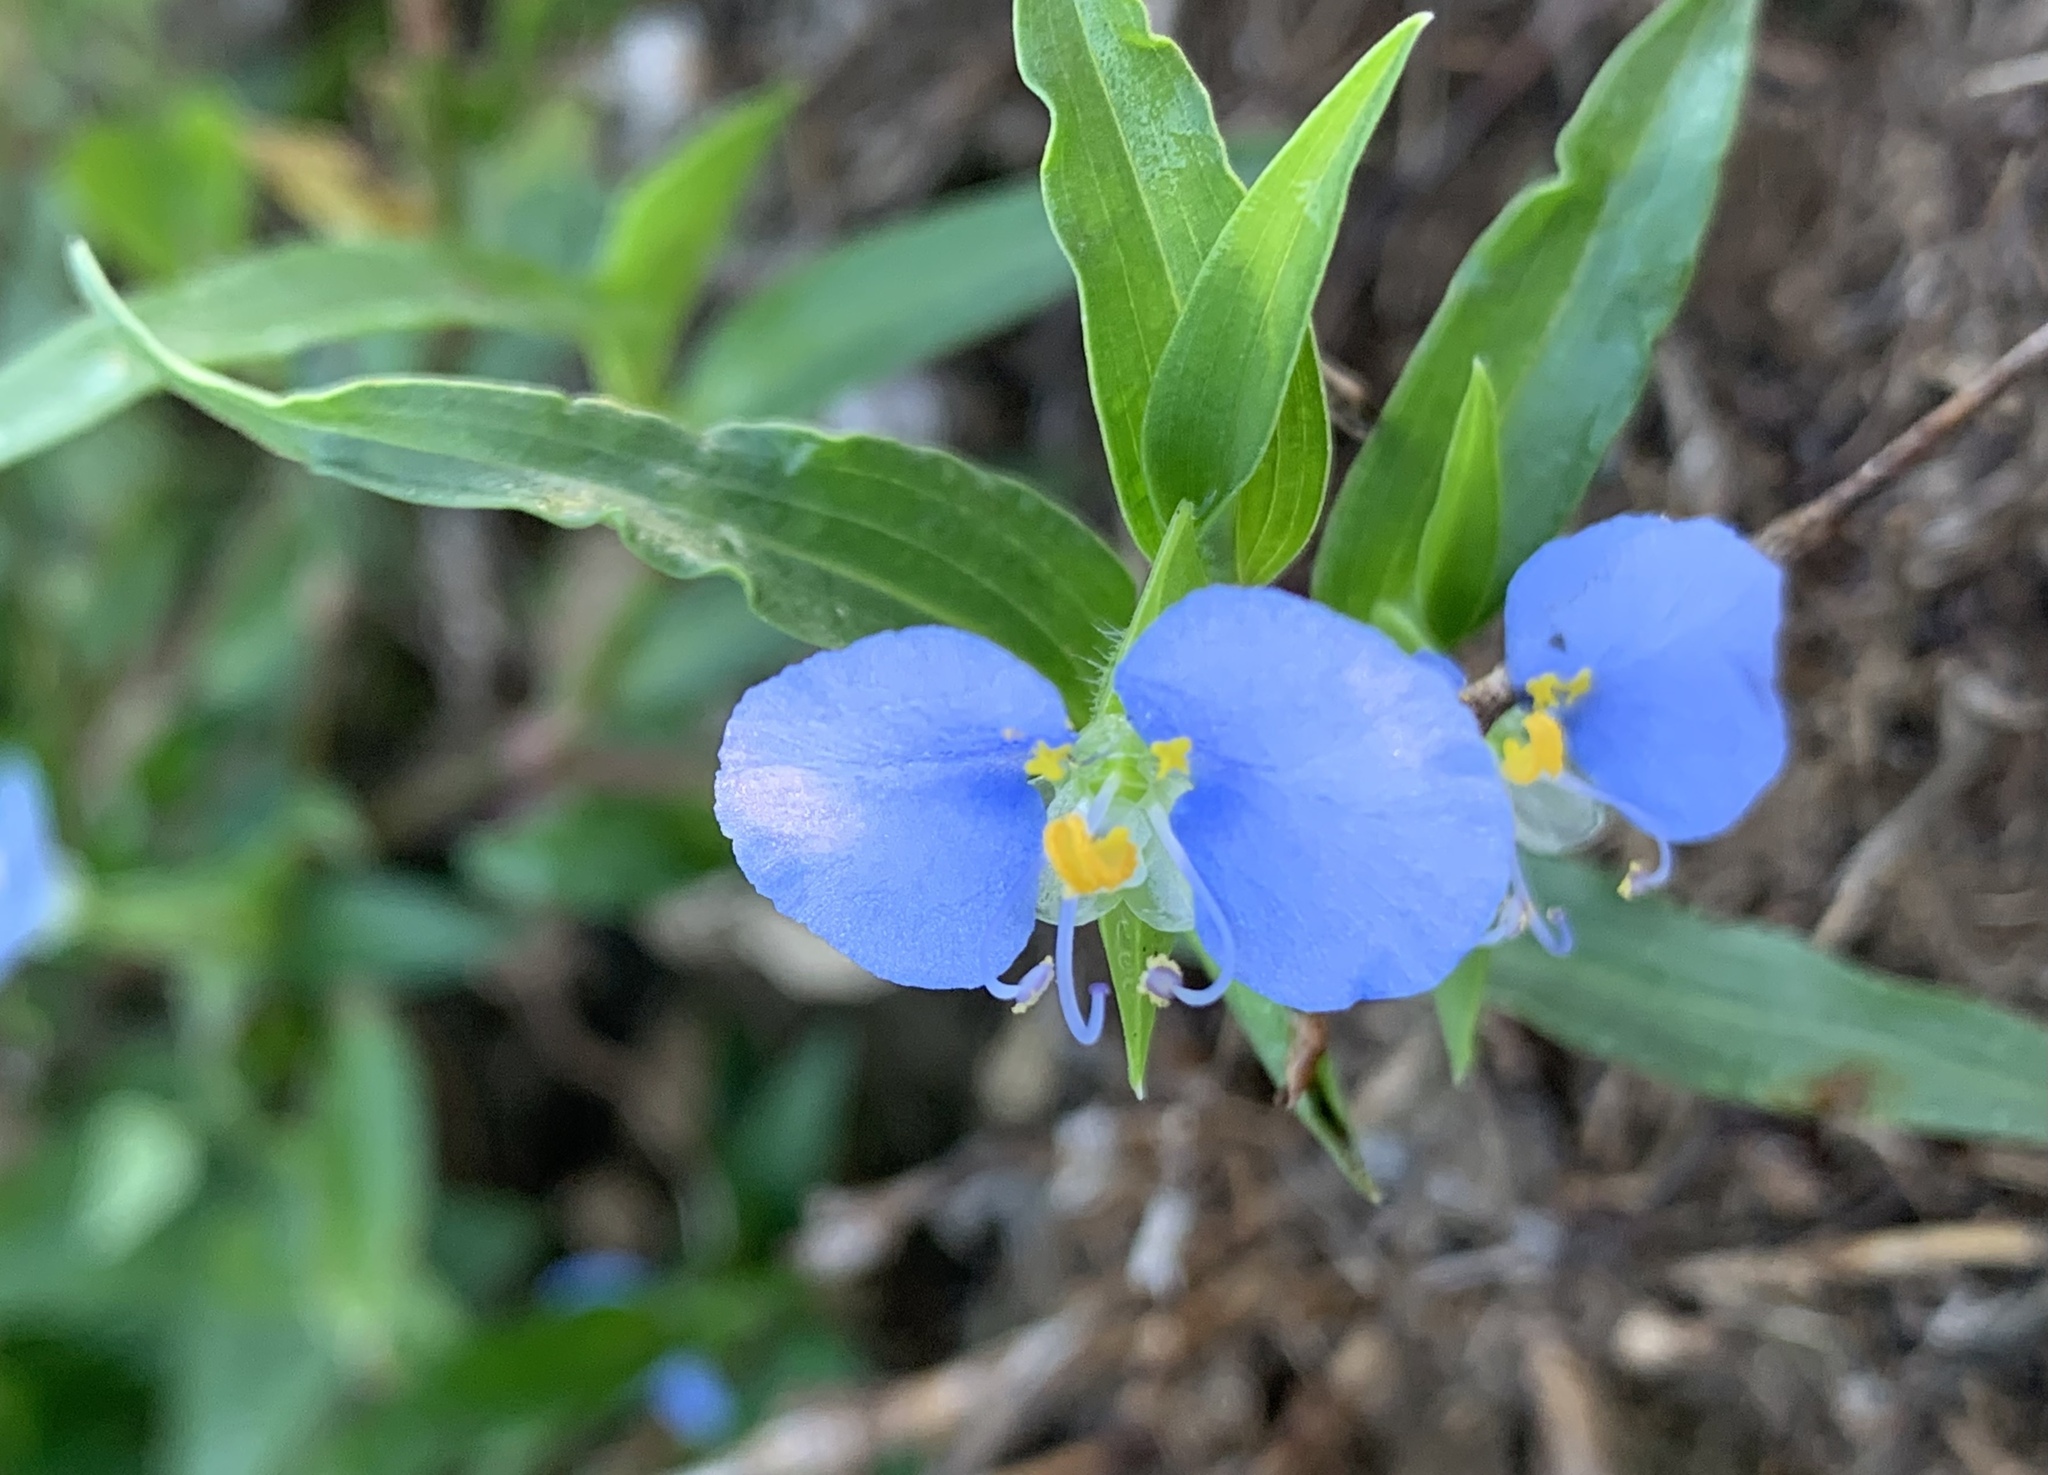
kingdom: Plantae
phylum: Tracheophyta
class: Liliopsida
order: Commelinales
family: Commelinaceae
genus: Commelina
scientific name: Commelina erecta
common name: Blousel blommetjie
